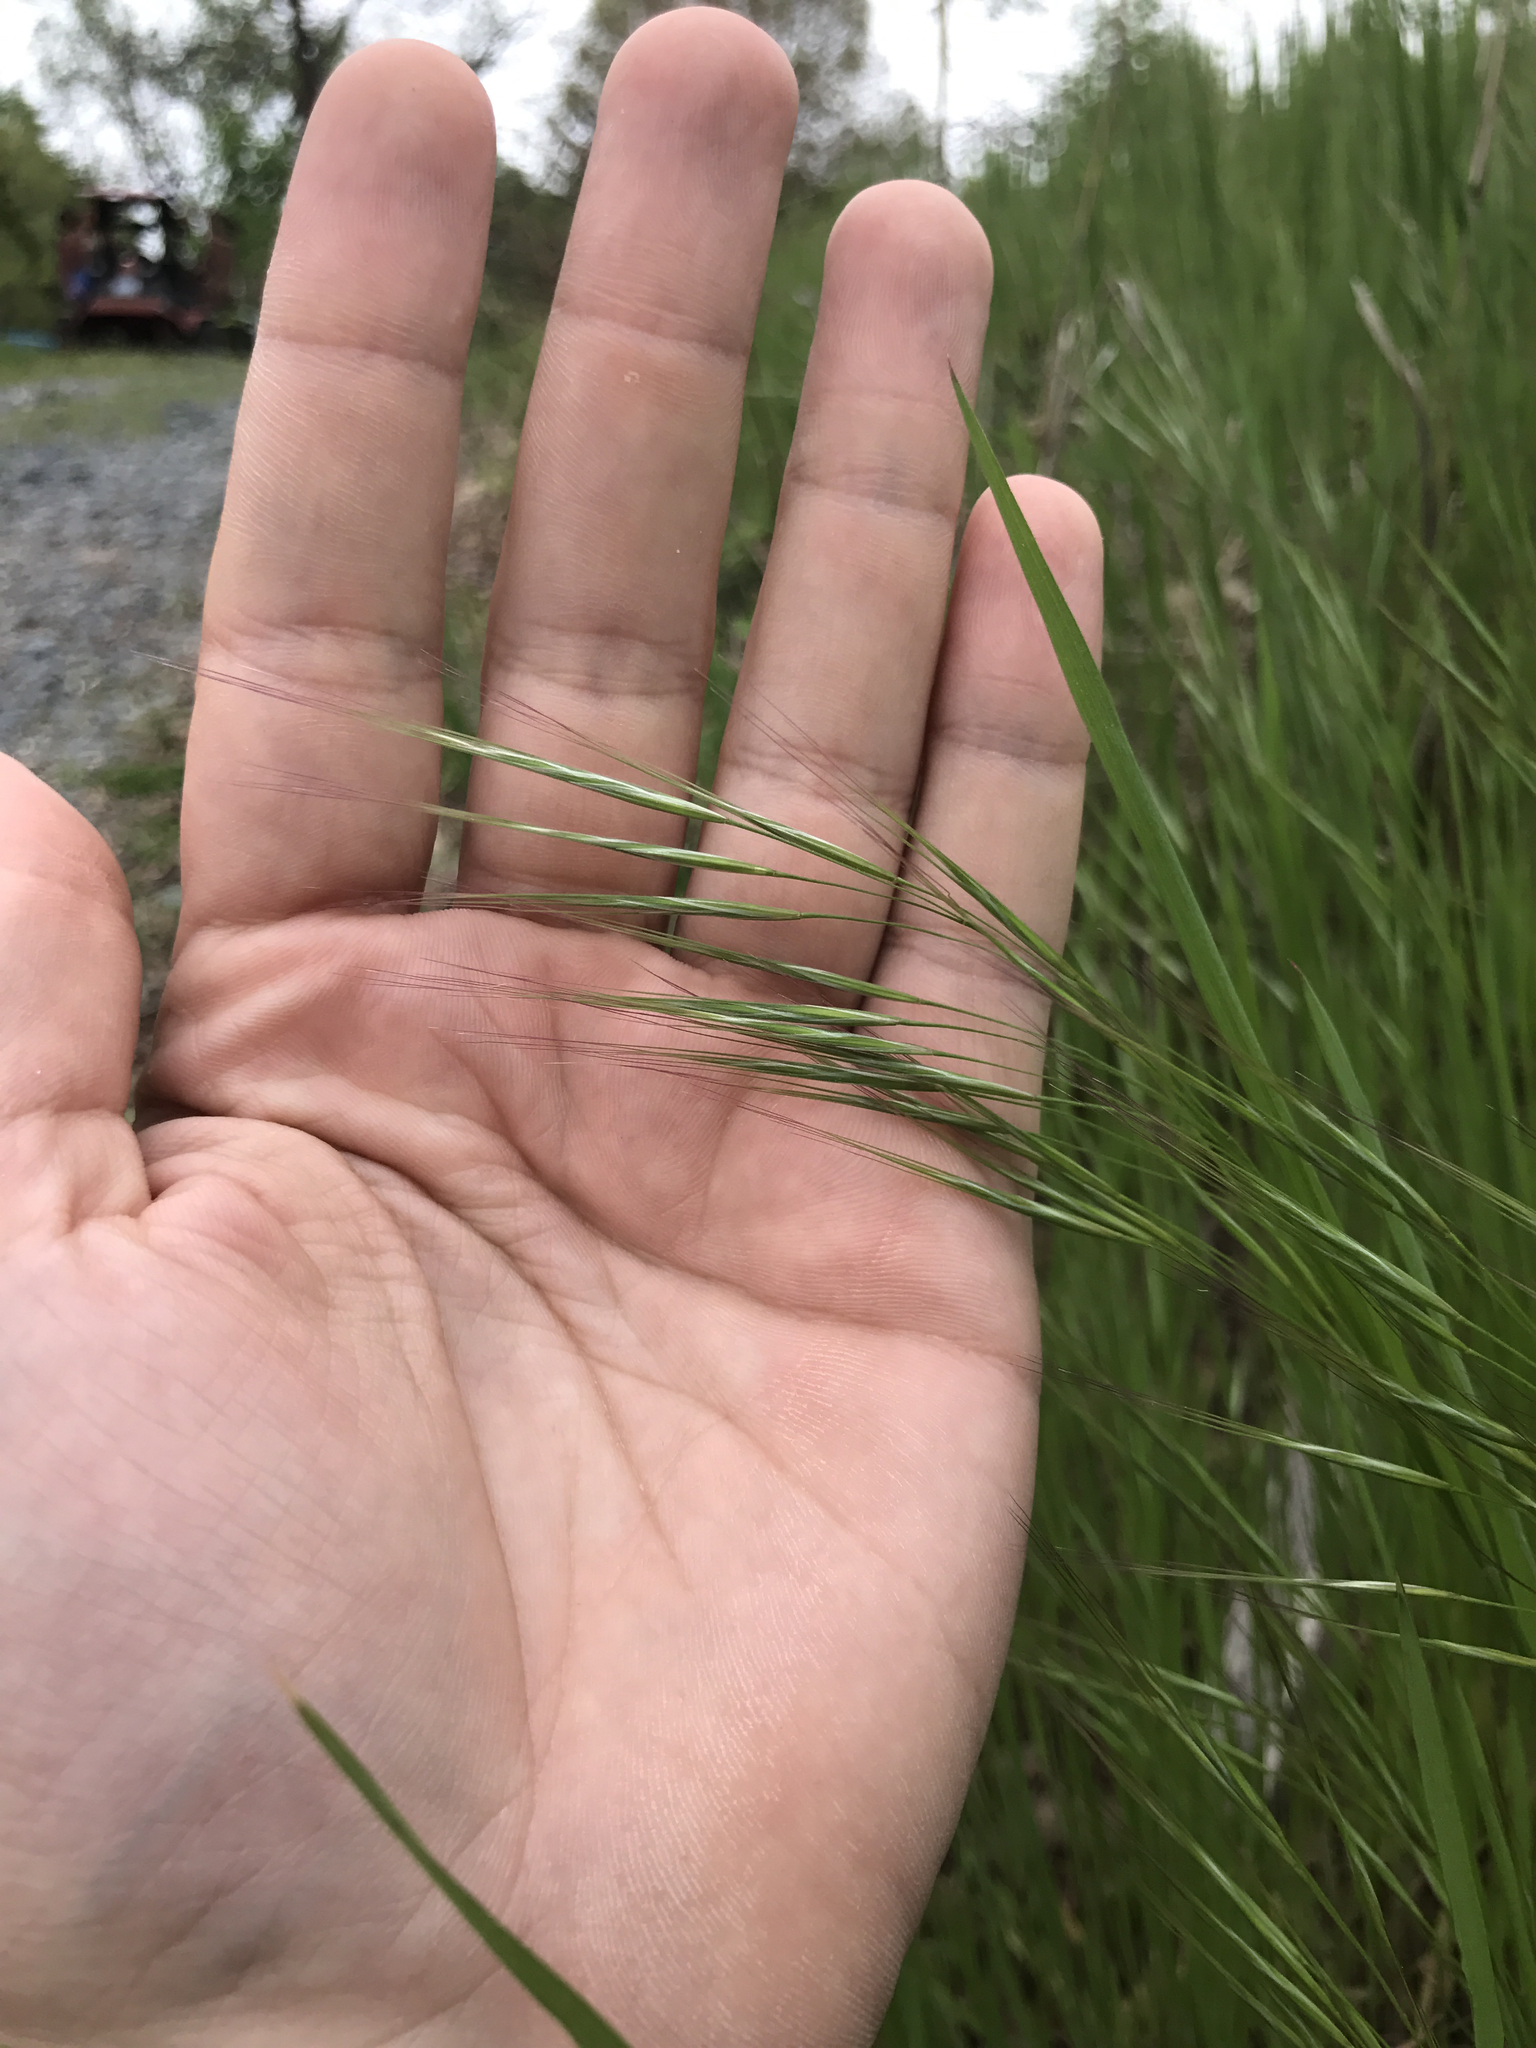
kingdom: Plantae
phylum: Tracheophyta
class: Liliopsida
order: Poales
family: Poaceae
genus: Bromus
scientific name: Bromus tectorum
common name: Cheatgrass
